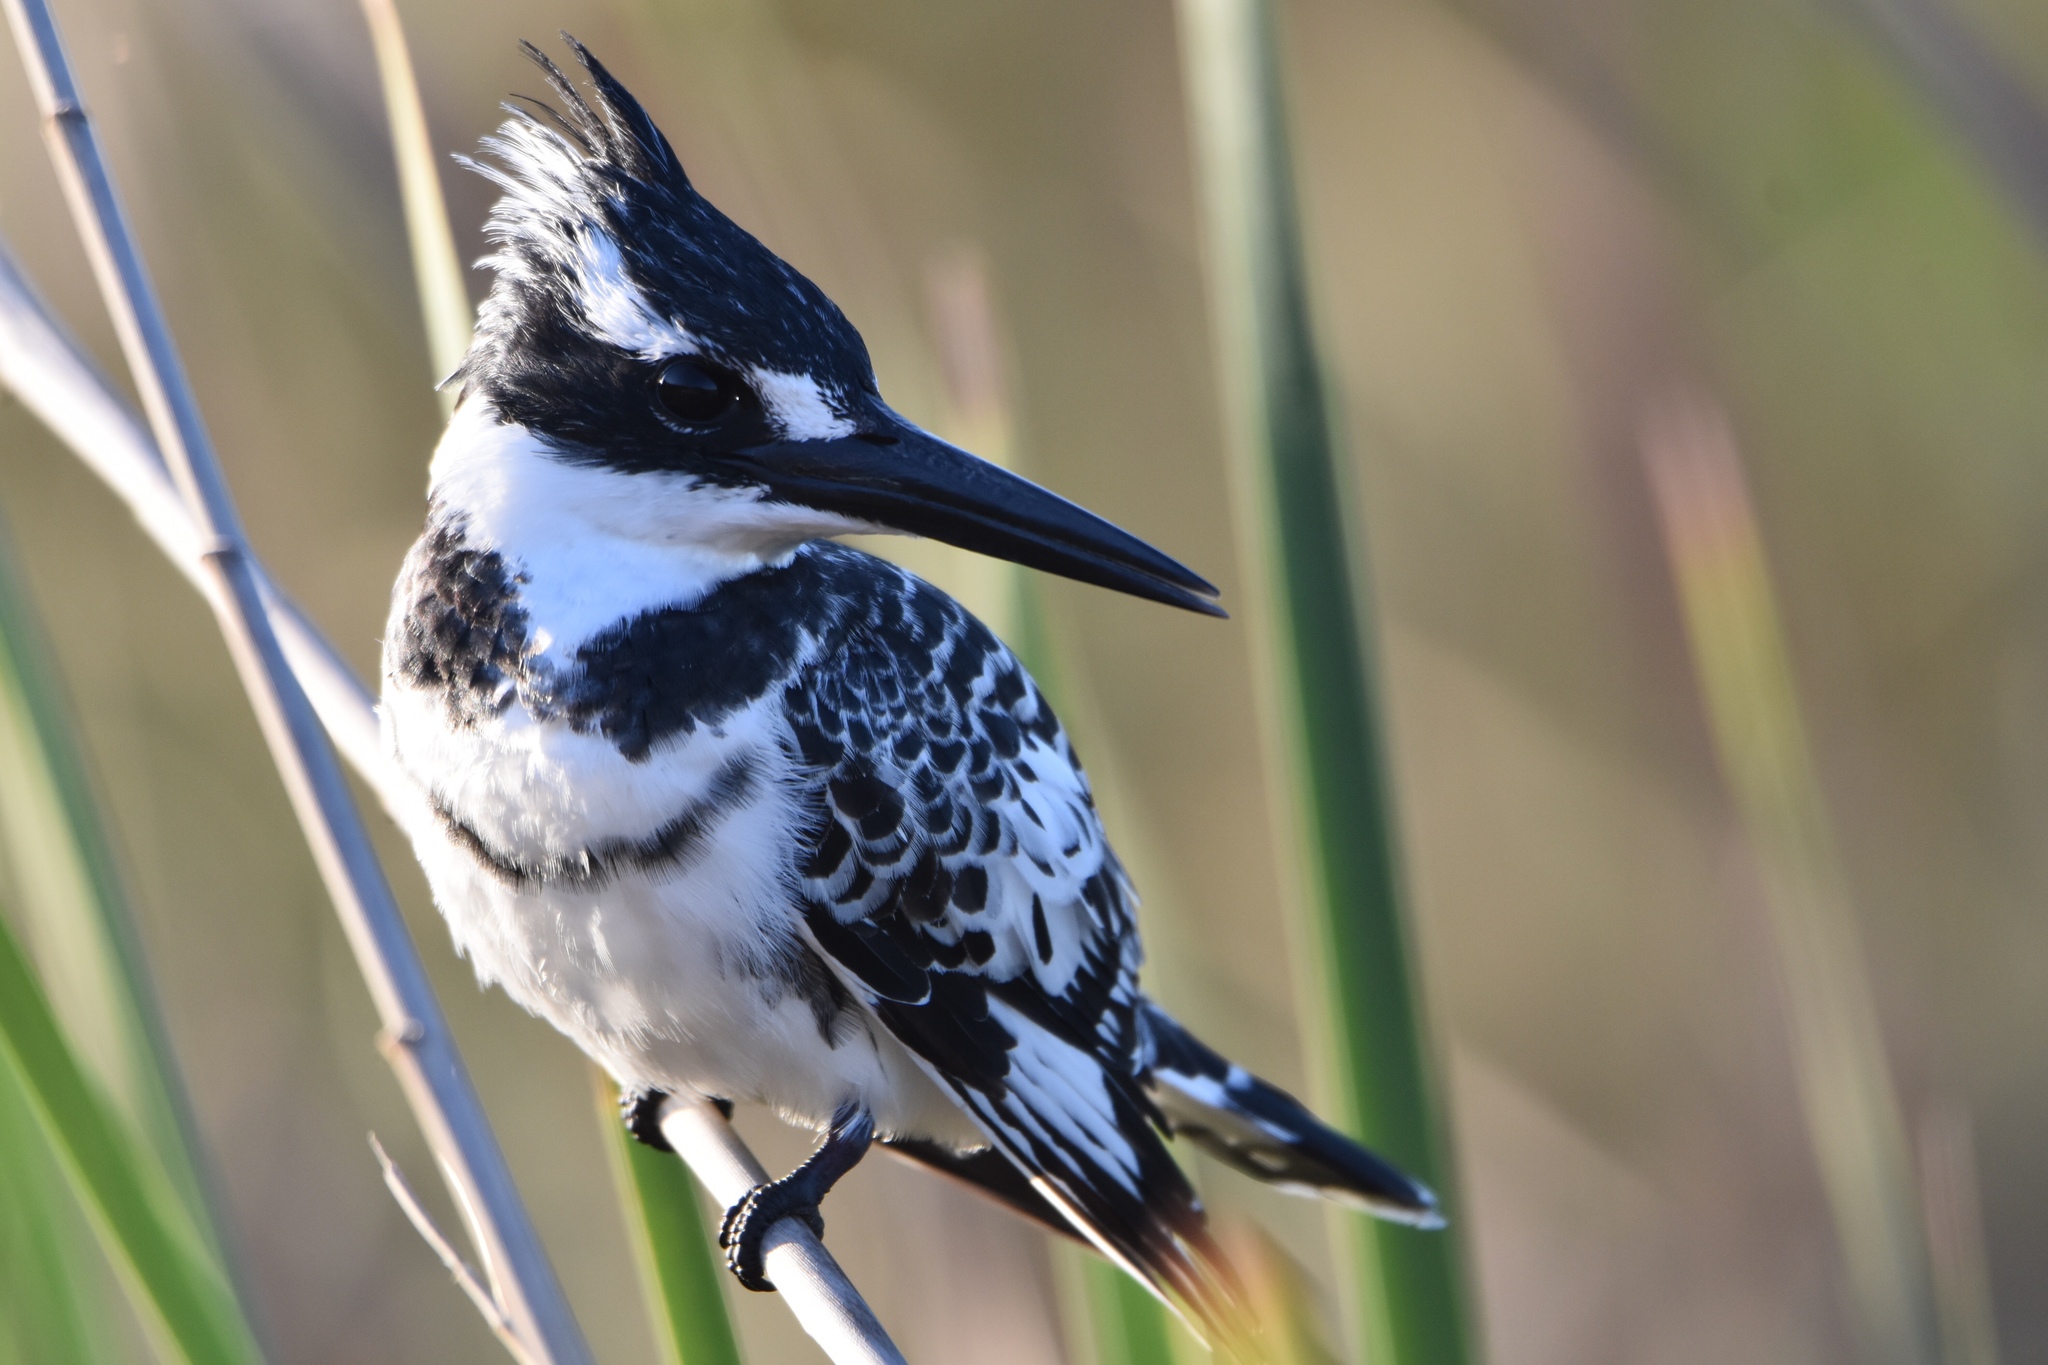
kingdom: Animalia
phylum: Chordata
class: Aves
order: Coraciiformes
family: Alcedinidae
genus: Ceryle
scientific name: Ceryle rudis
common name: Pied kingfisher
